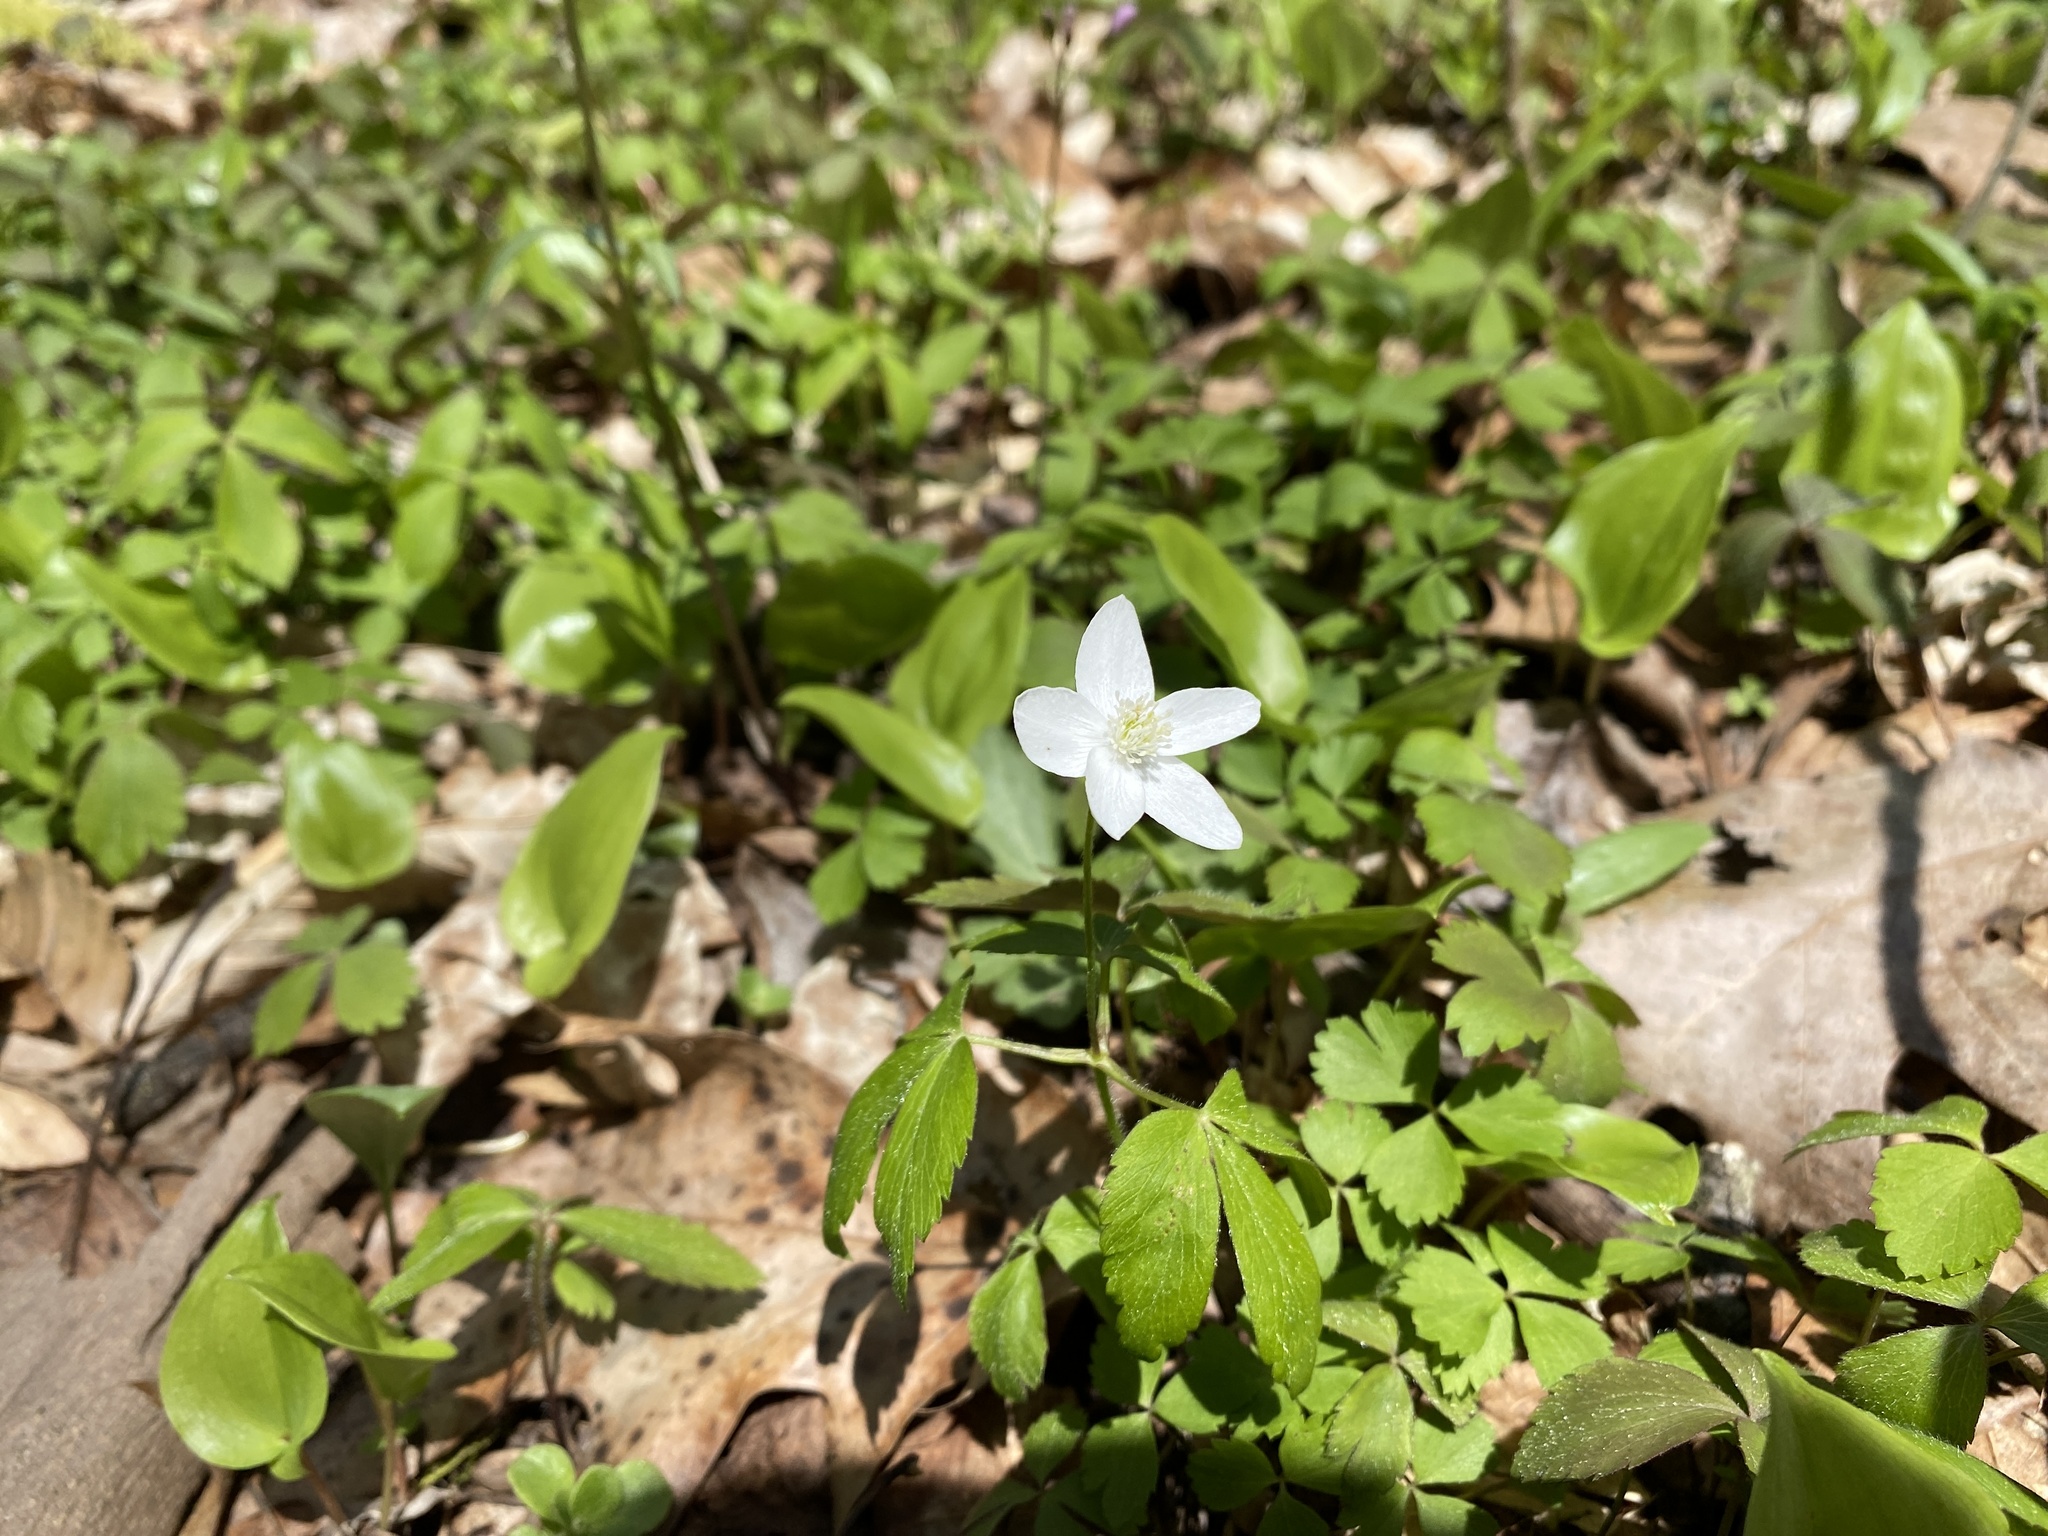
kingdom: Plantae
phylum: Tracheophyta
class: Magnoliopsida
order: Ranunculales
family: Ranunculaceae
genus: Anemone
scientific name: Anemone quinquefolia
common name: Wood anemone
